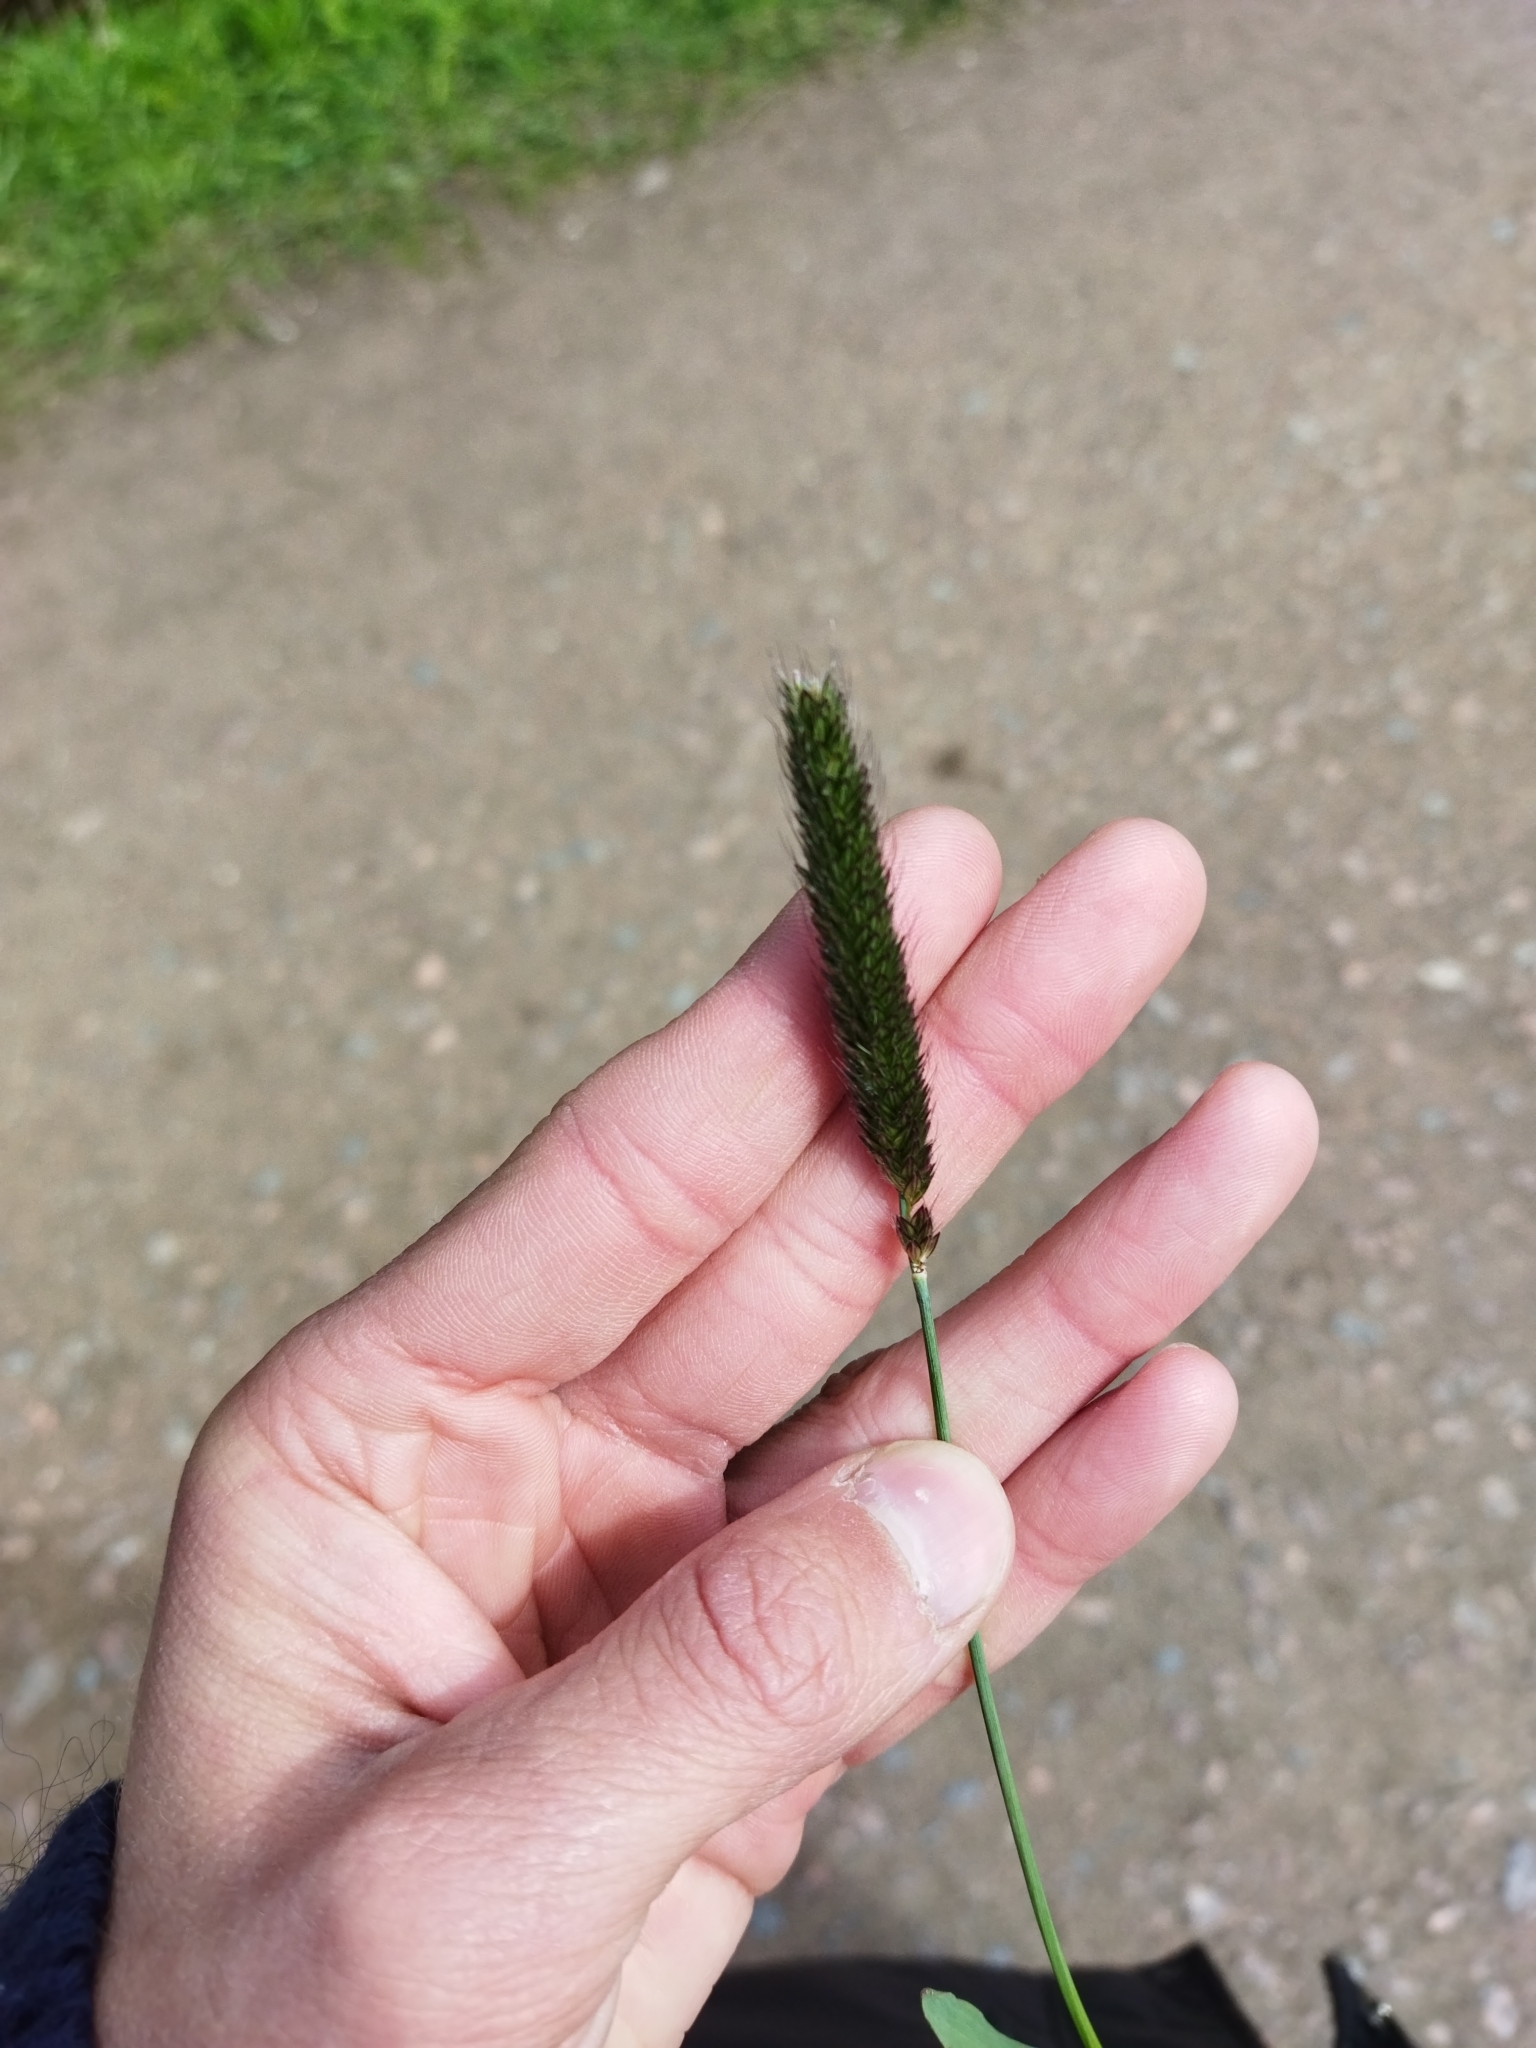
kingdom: Plantae
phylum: Tracheophyta
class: Liliopsida
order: Poales
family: Poaceae
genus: Alopecurus
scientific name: Alopecurus pratensis
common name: Meadow foxtail
